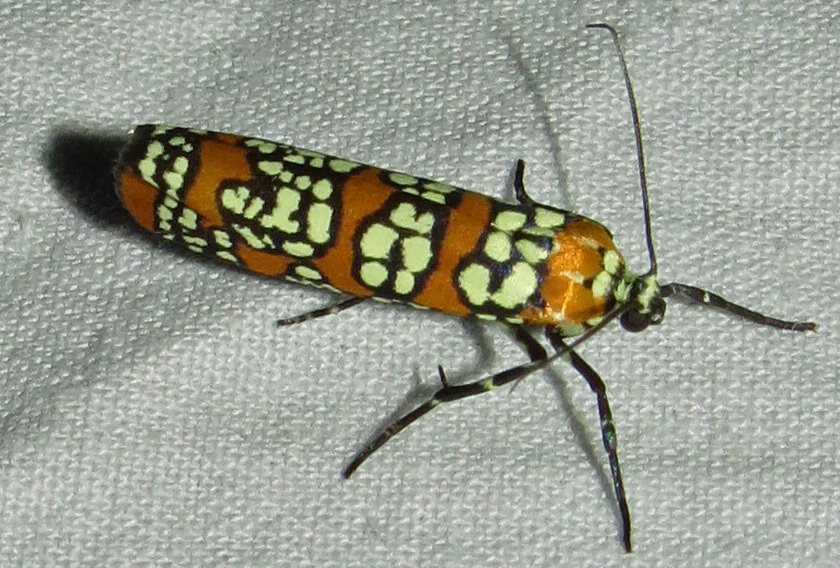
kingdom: Animalia
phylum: Arthropoda
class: Insecta
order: Lepidoptera
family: Attevidae
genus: Atteva
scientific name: Atteva punctella
